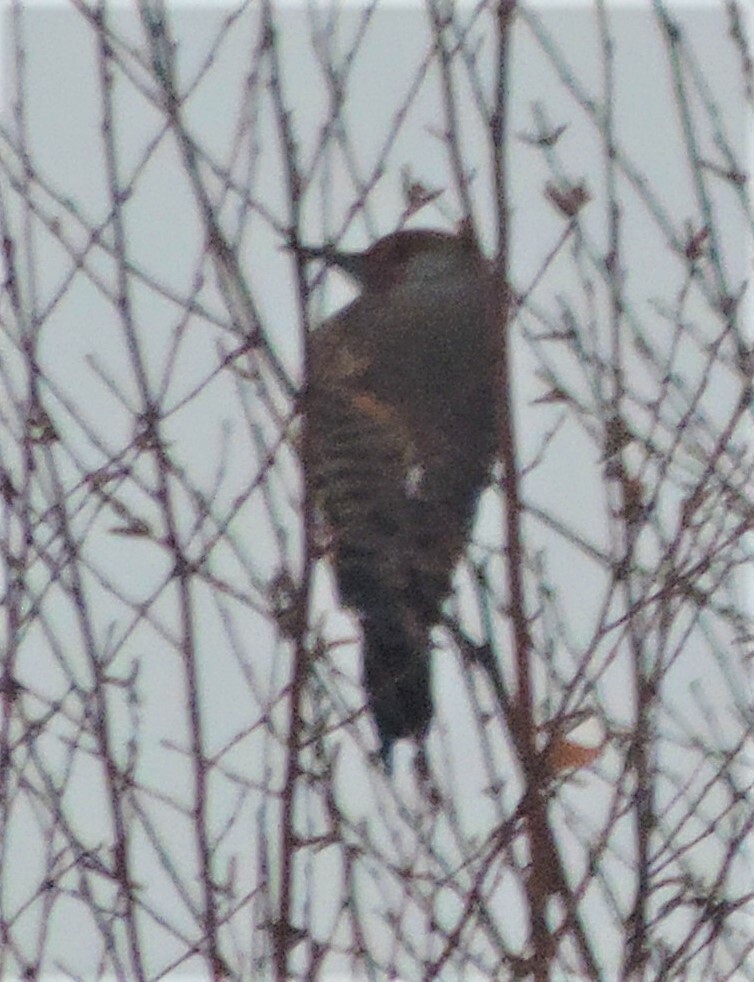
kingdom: Animalia
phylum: Chordata
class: Aves
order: Piciformes
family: Picidae
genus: Colaptes
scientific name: Colaptes auratus
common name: Northern flicker
